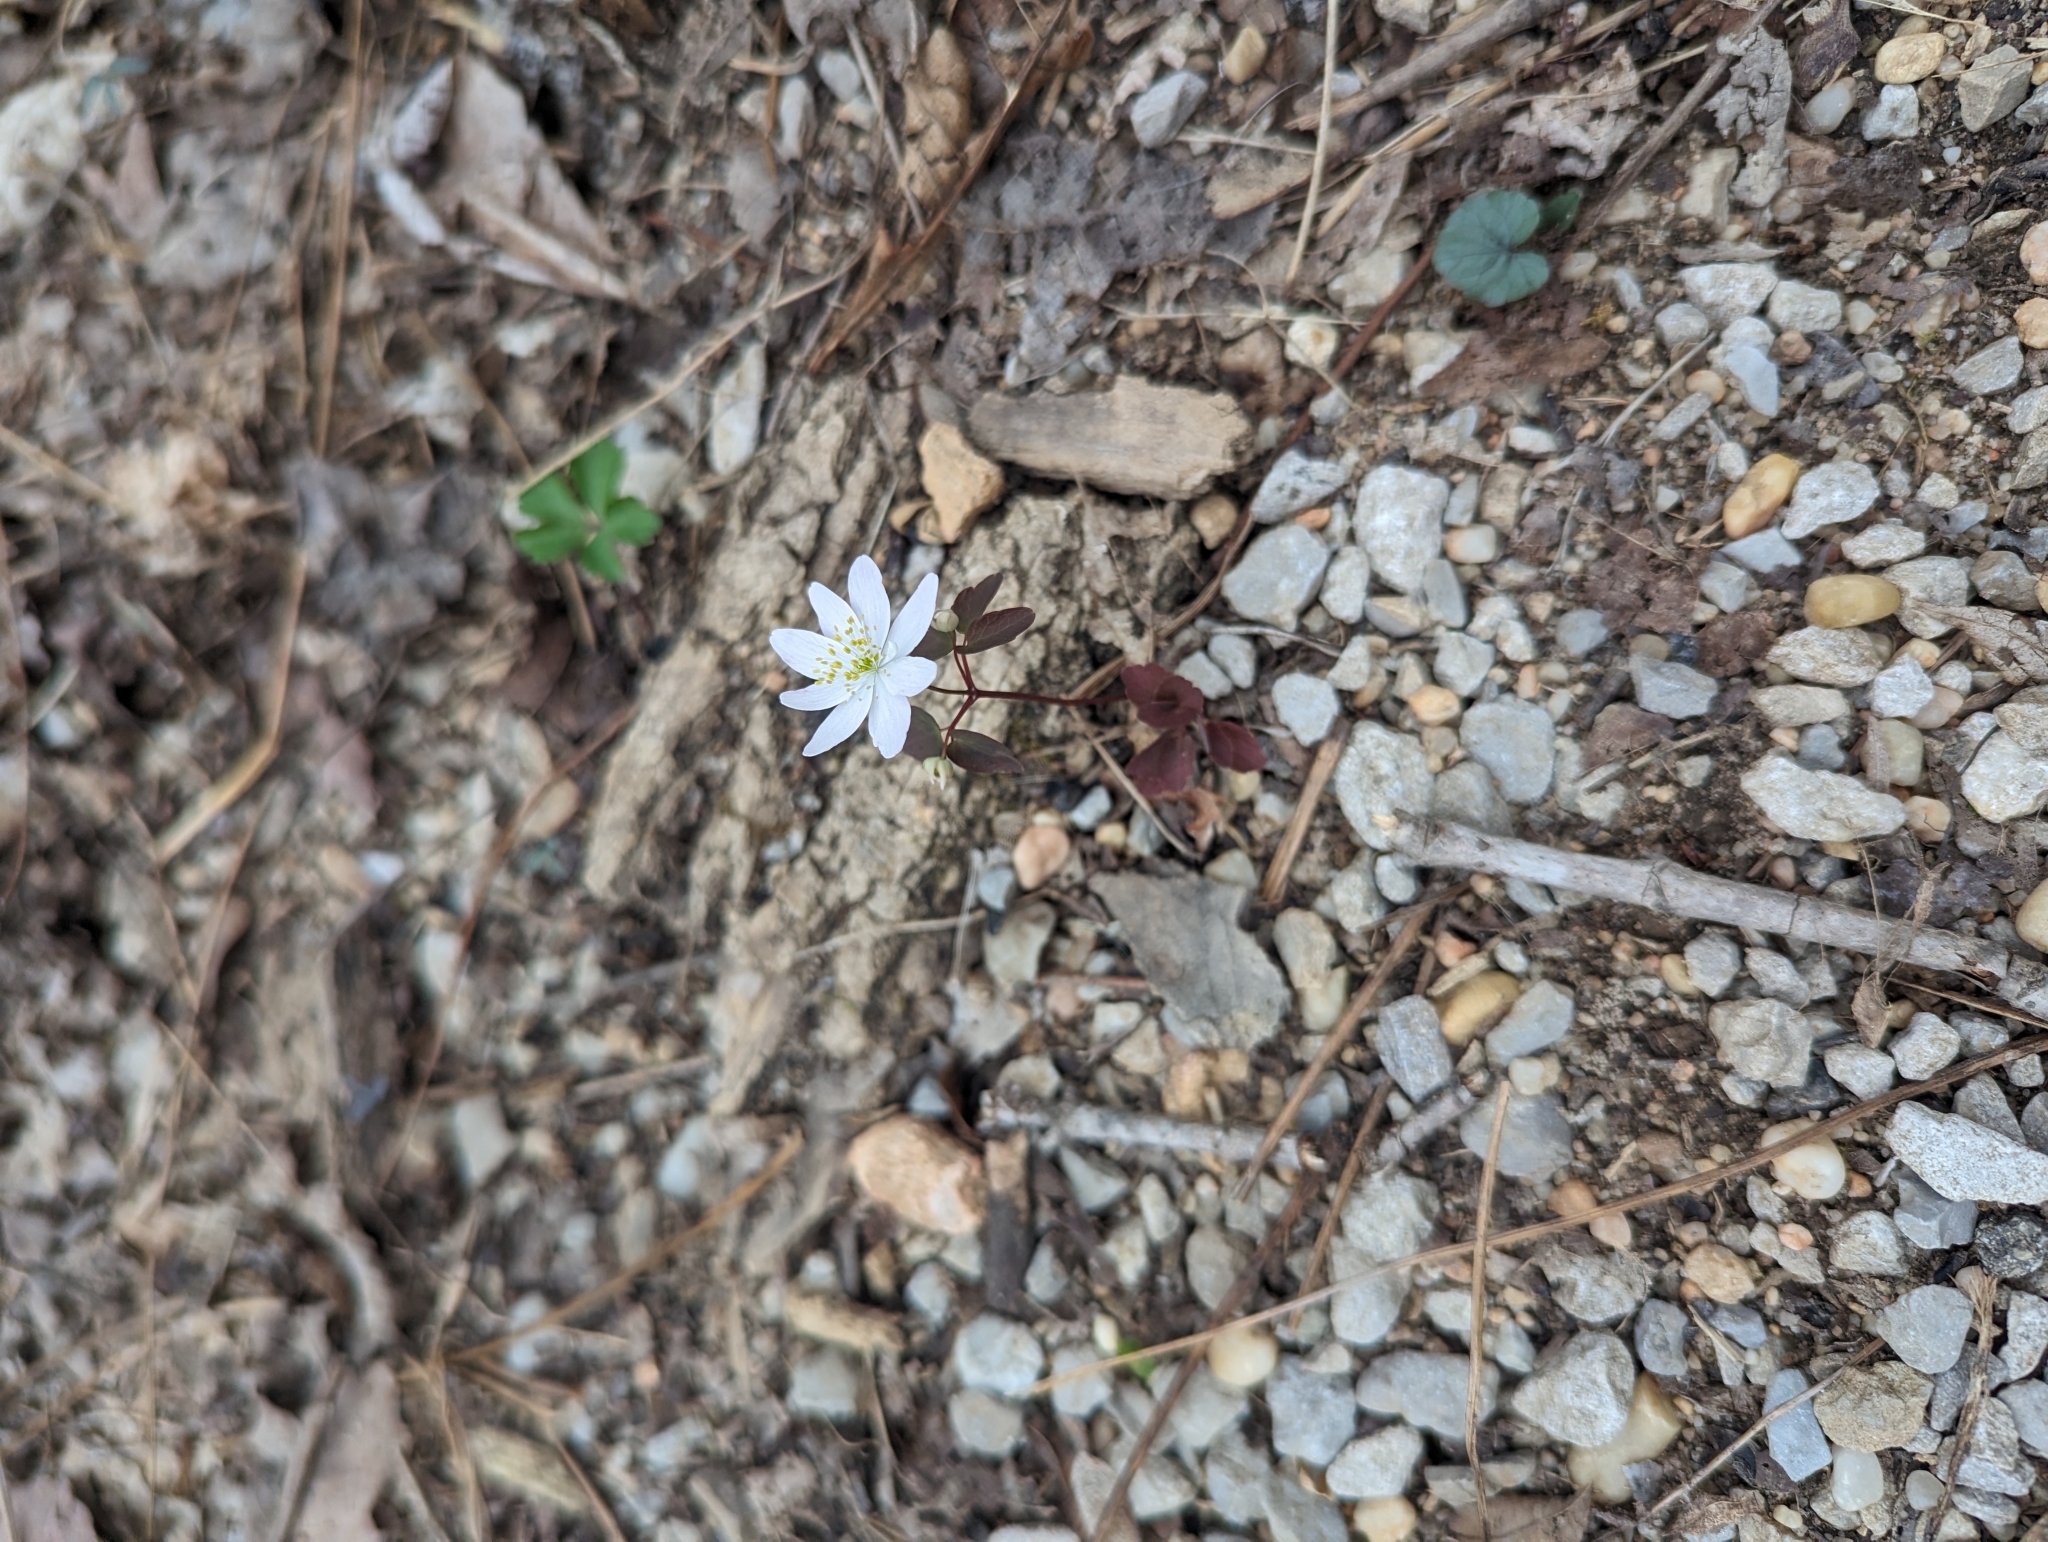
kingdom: Plantae
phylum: Tracheophyta
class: Magnoliopsida
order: Ranunculales
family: Ranunculaceae
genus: Thalictrum
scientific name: Thalictrum thalictroides
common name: Rue-anemone
